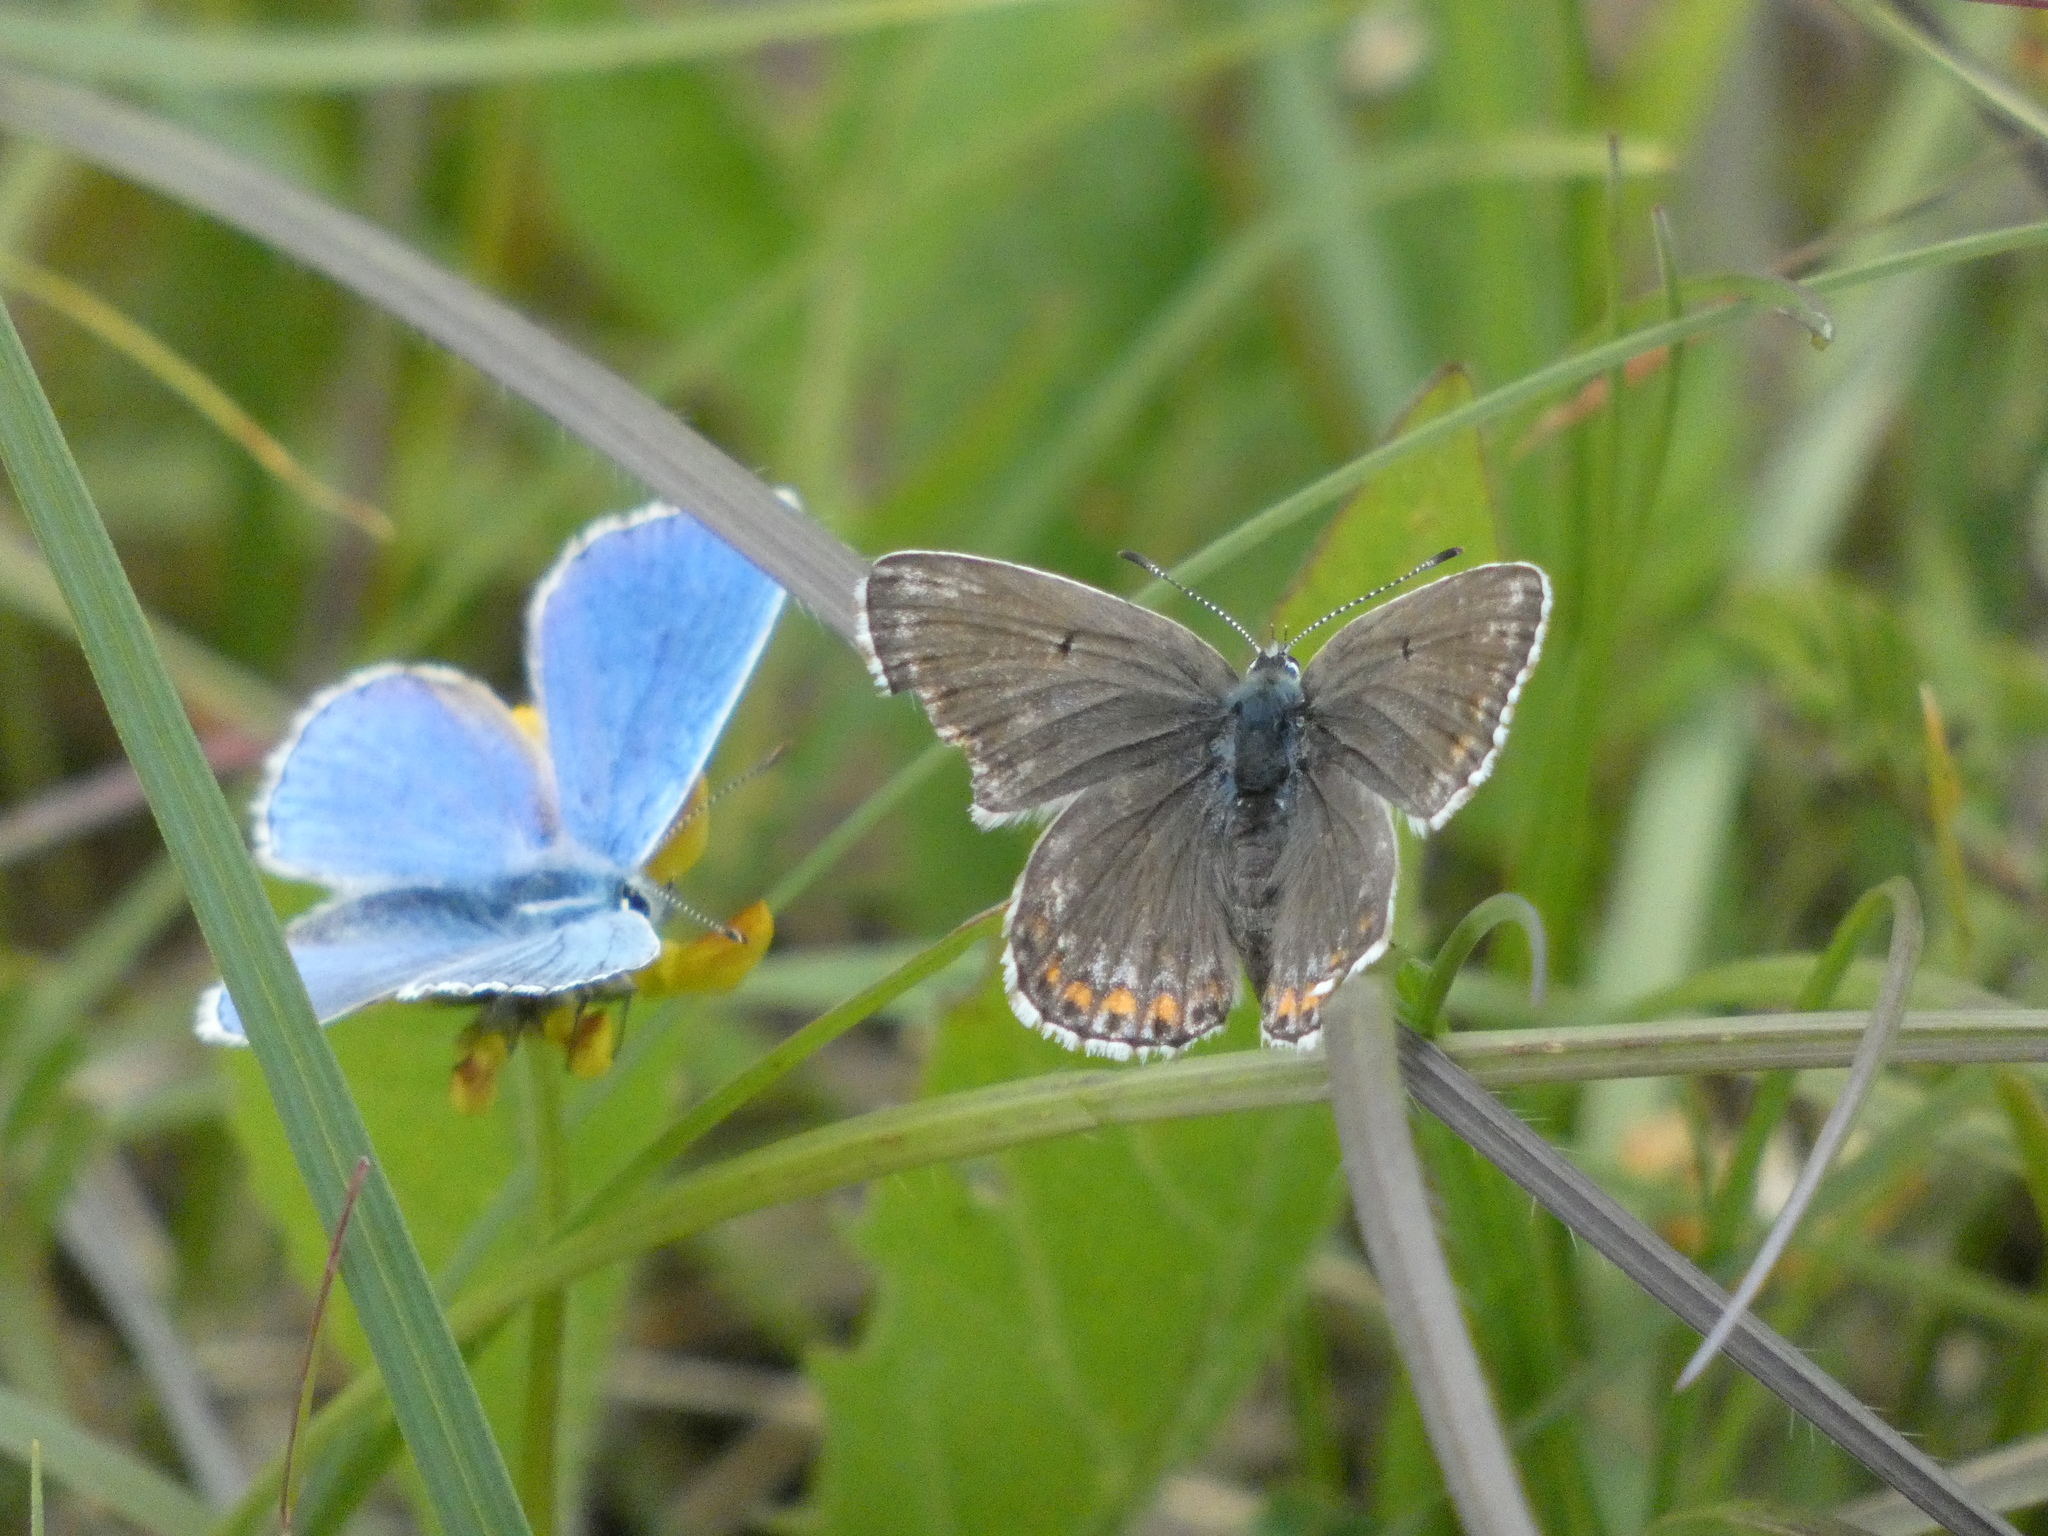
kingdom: Animalia
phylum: Arthropoda
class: Insecta
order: Lepidoptera
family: Lycaenidae
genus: Lysandra
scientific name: Lysandra bellargus
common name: Adonis blue
